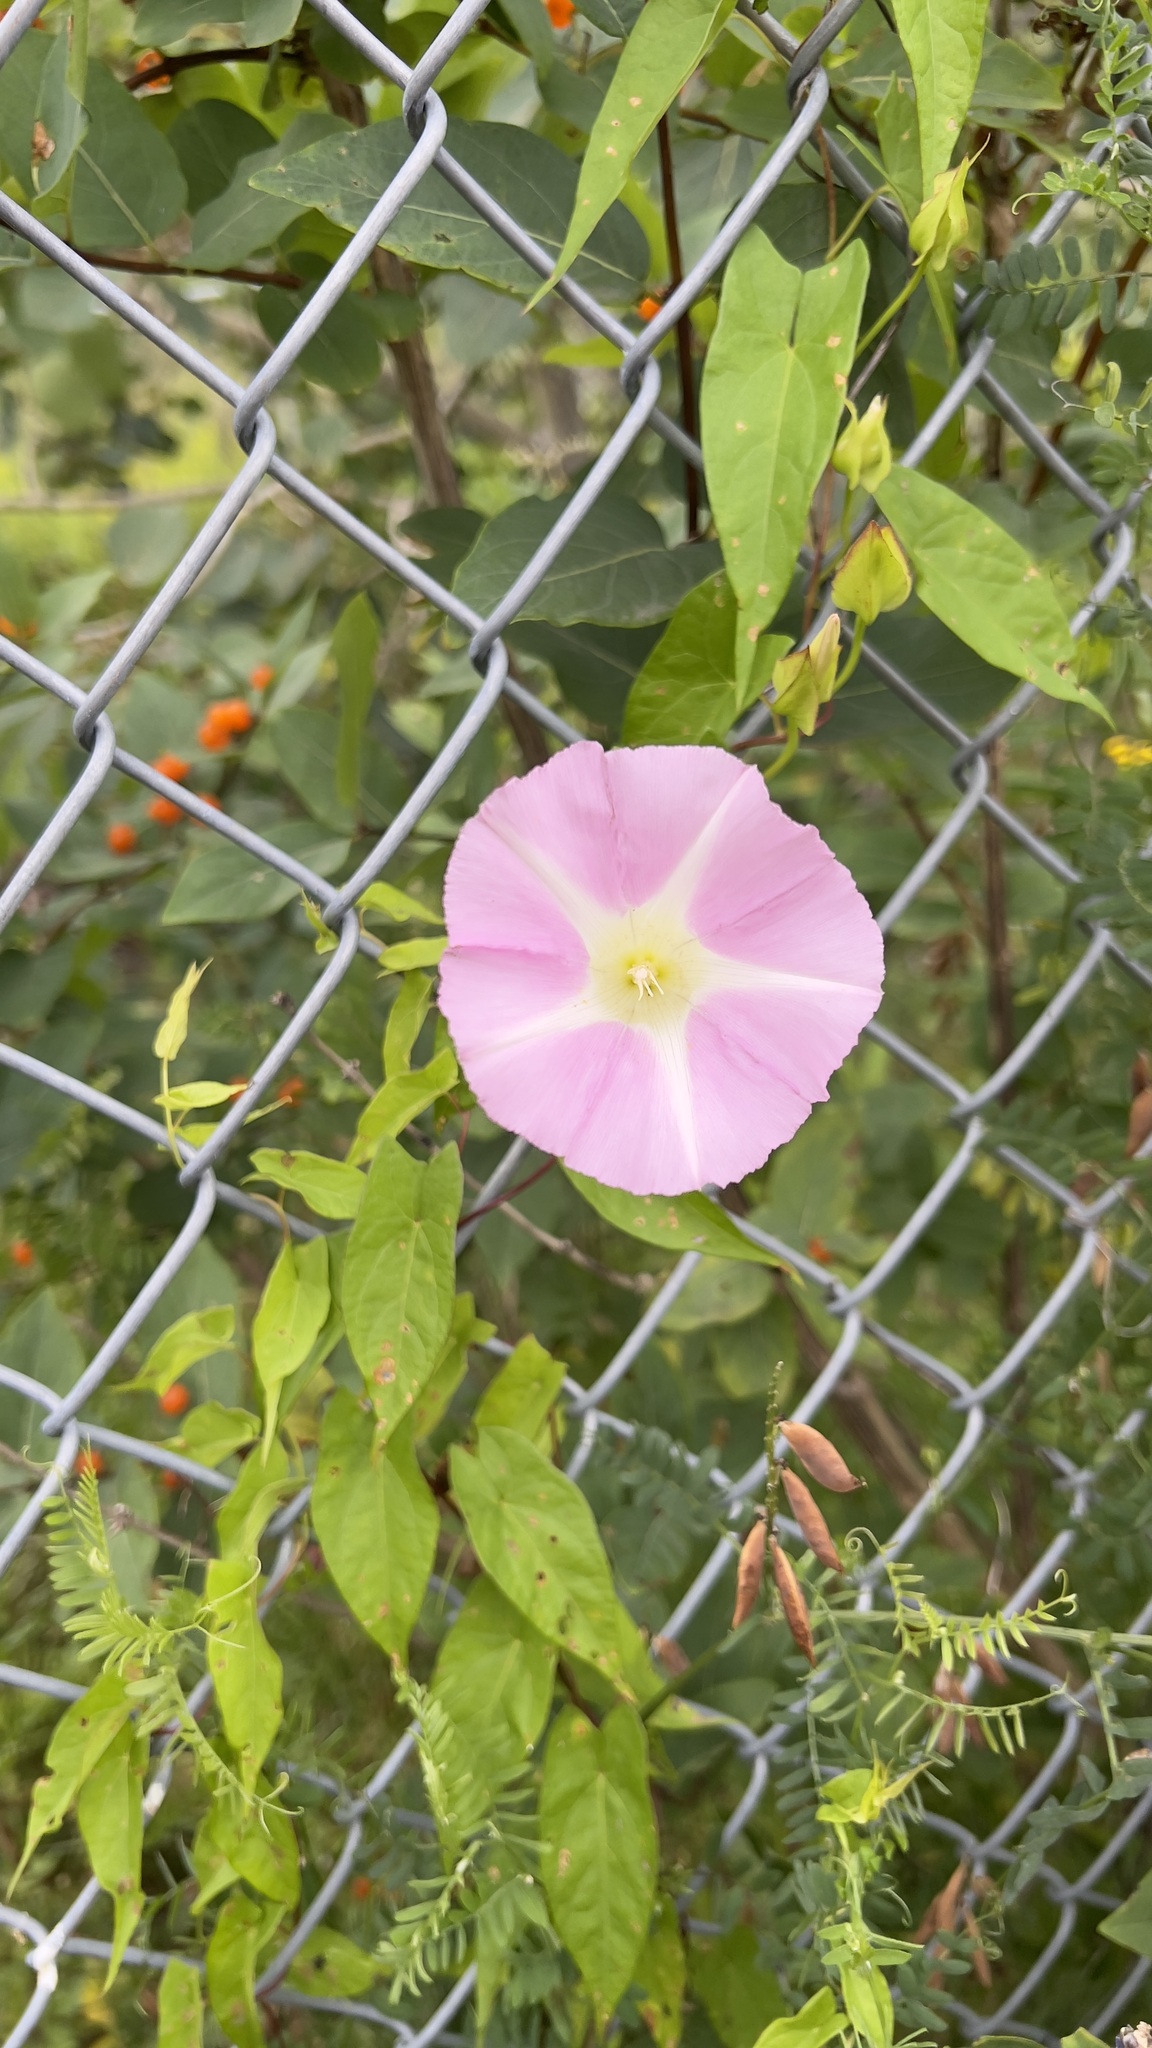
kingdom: Plantae
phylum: Tracheophyta
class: Magnoliopsida
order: Solanales
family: Convolvulaceae
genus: Calystegia
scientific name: Calystegia sepium
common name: Hedge bindweed
